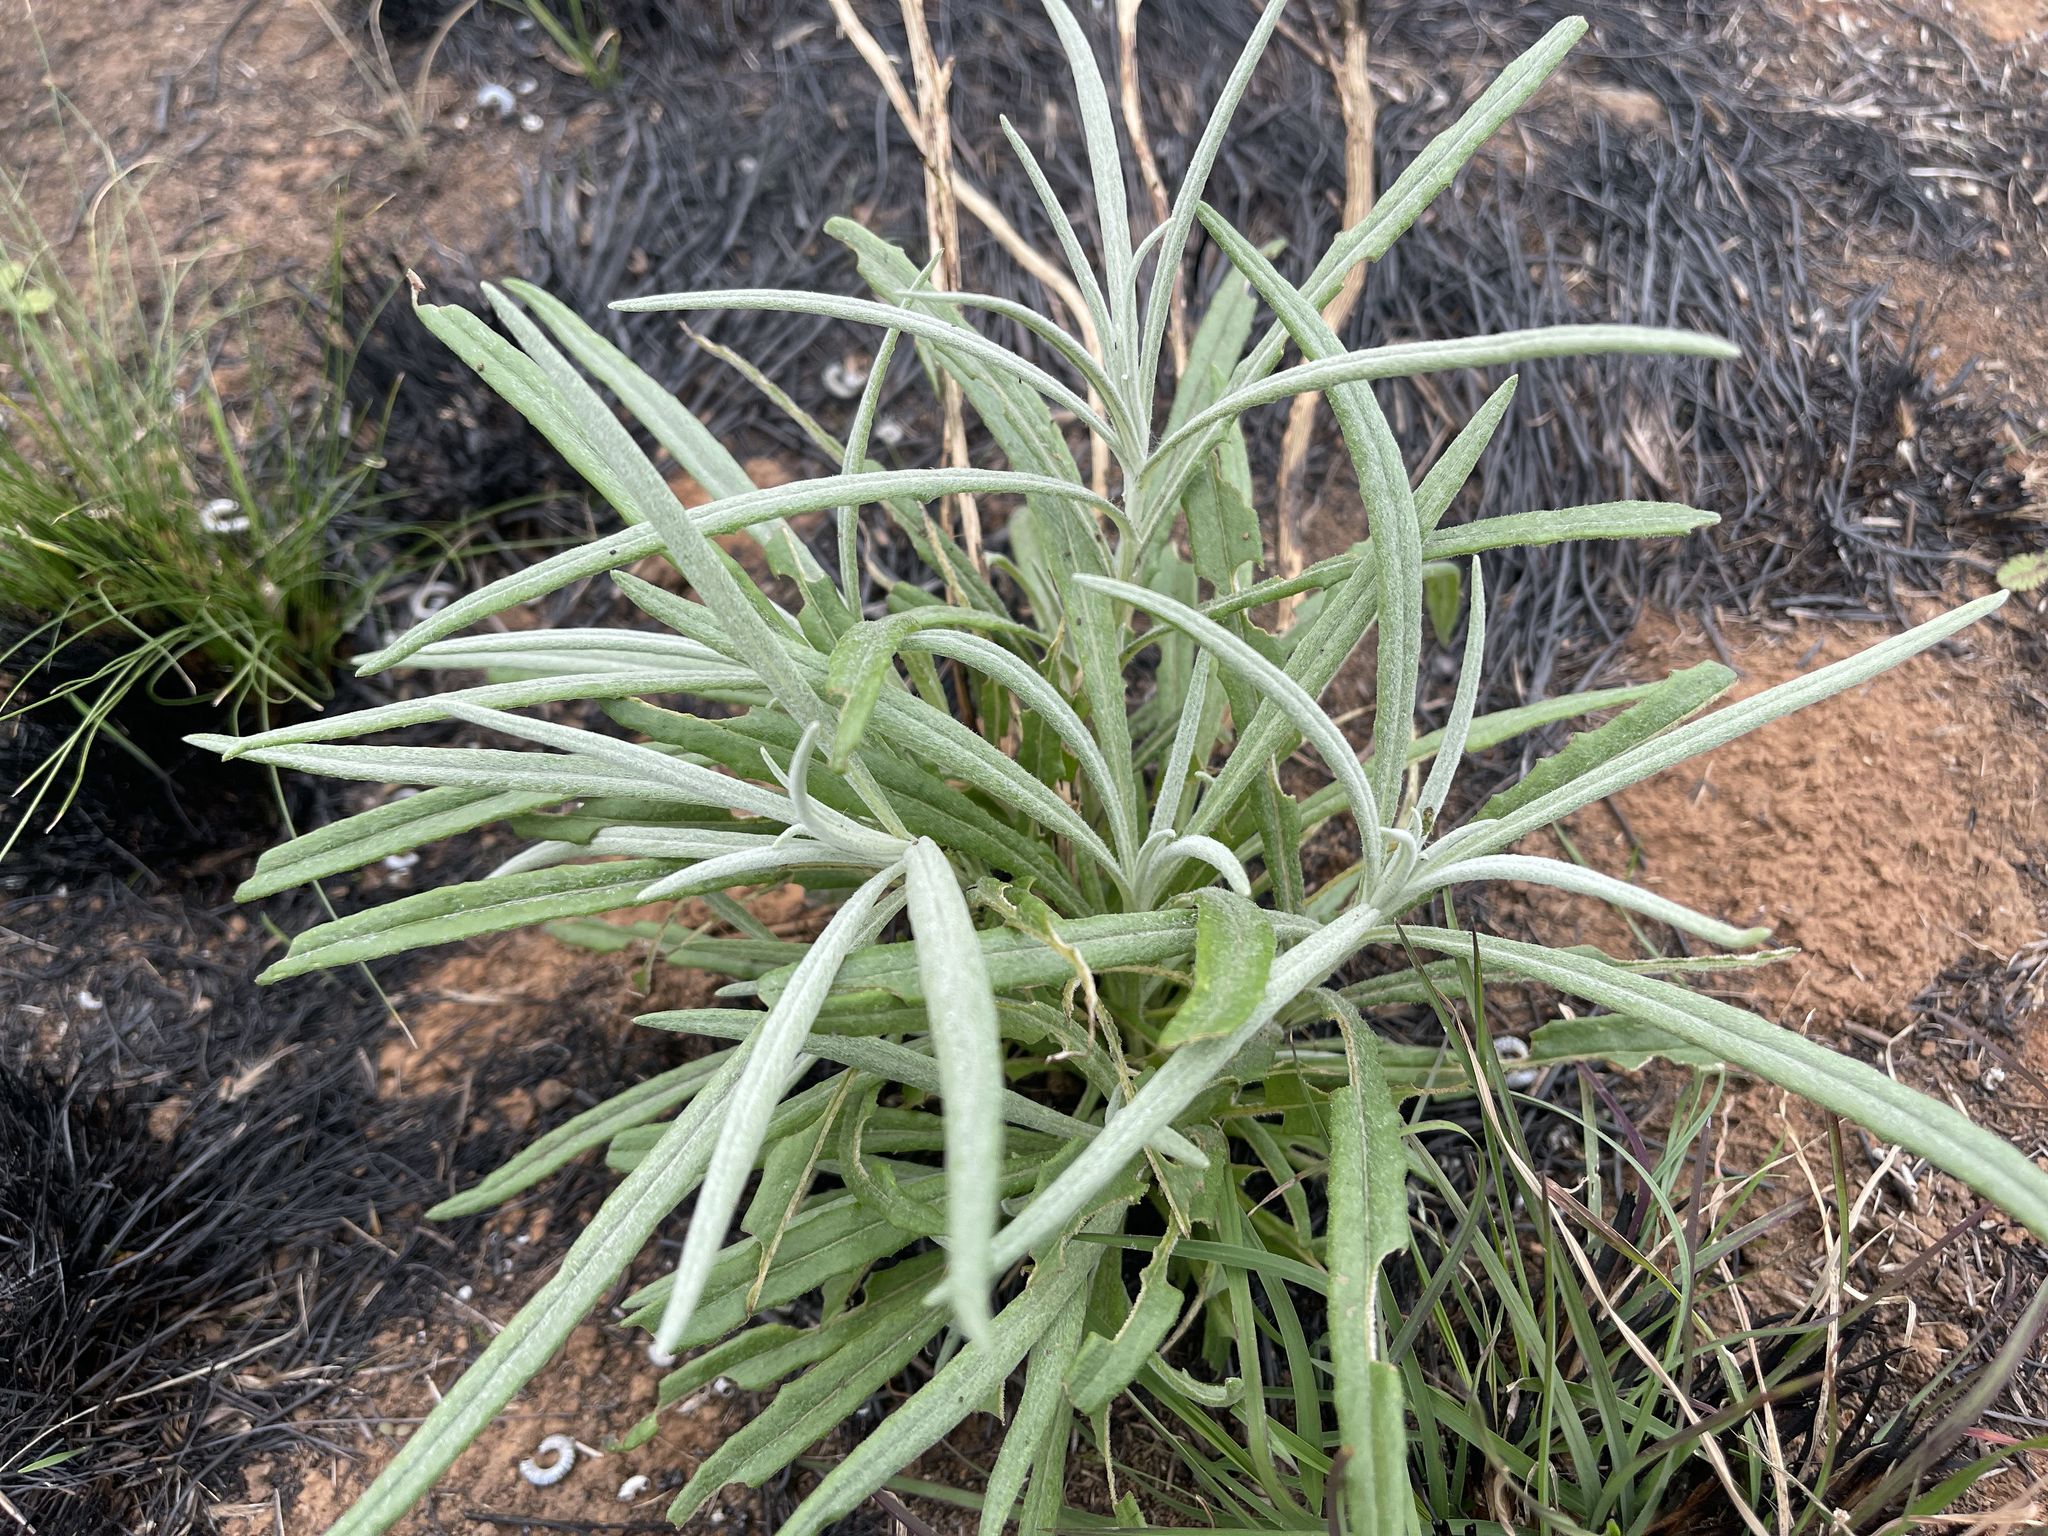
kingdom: Plantae
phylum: Tracheophyta
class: Magnoliopsida
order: Asterales
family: Asteraceae
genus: Senecio
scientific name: Senecio quadridentatus
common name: Cotton fireweed
